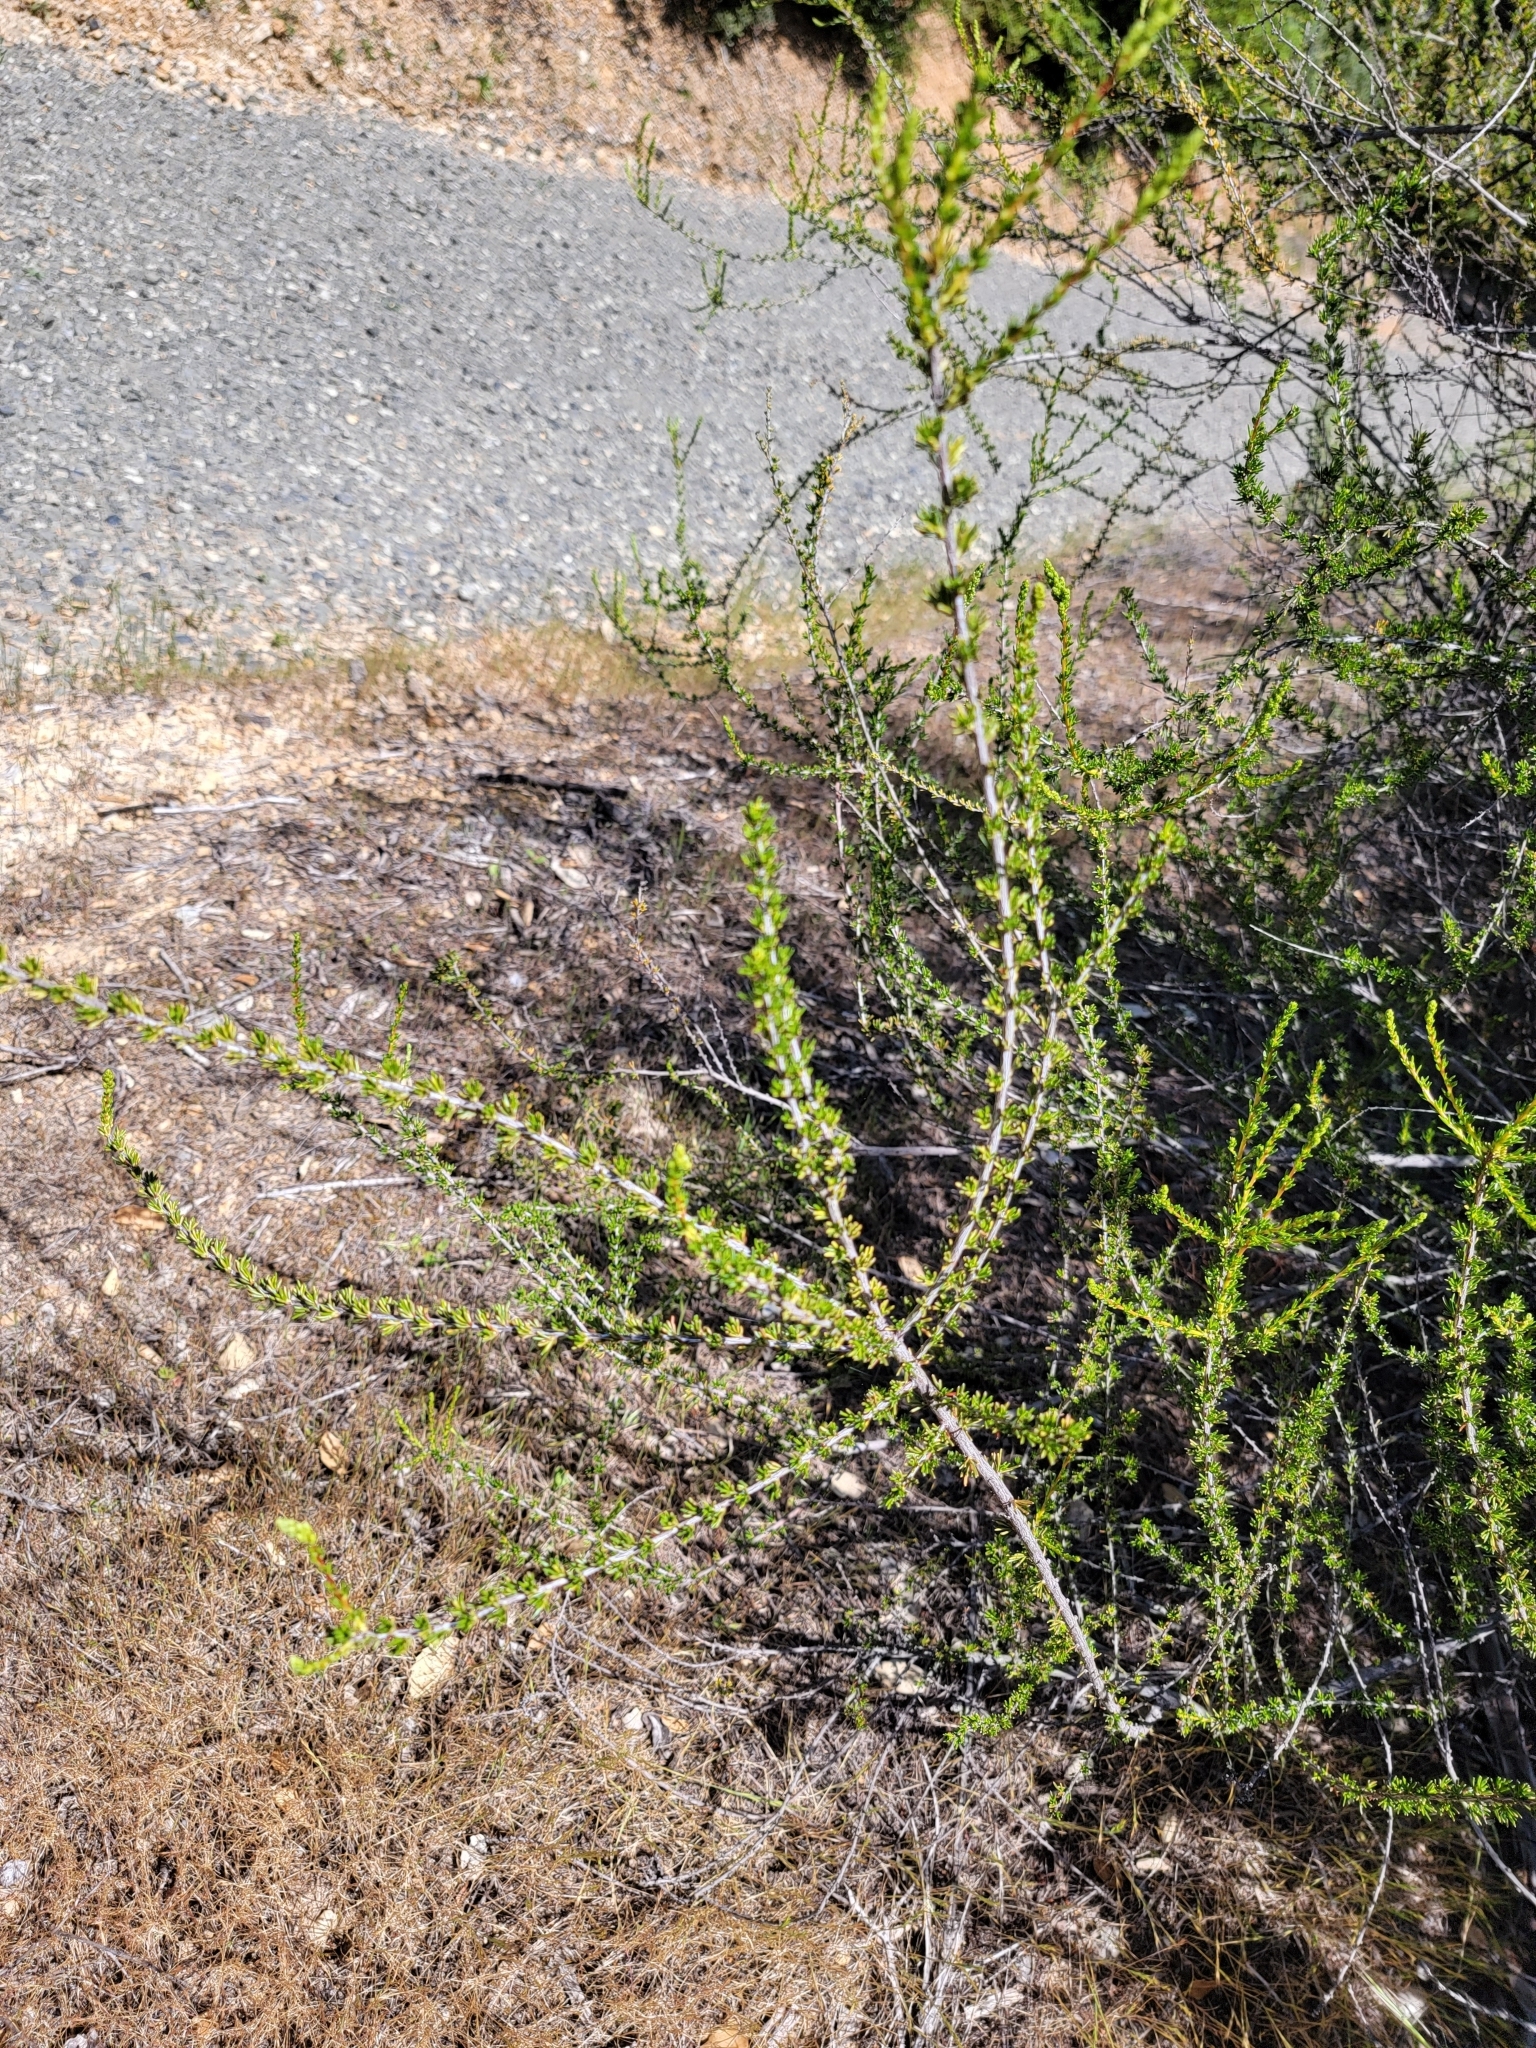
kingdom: Plantae
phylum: Tracheophyta
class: Magnoliopsida
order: Rosales
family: Rosaceae
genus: Adenostoma
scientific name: Adenostoma fasciculatum
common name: Chamise
